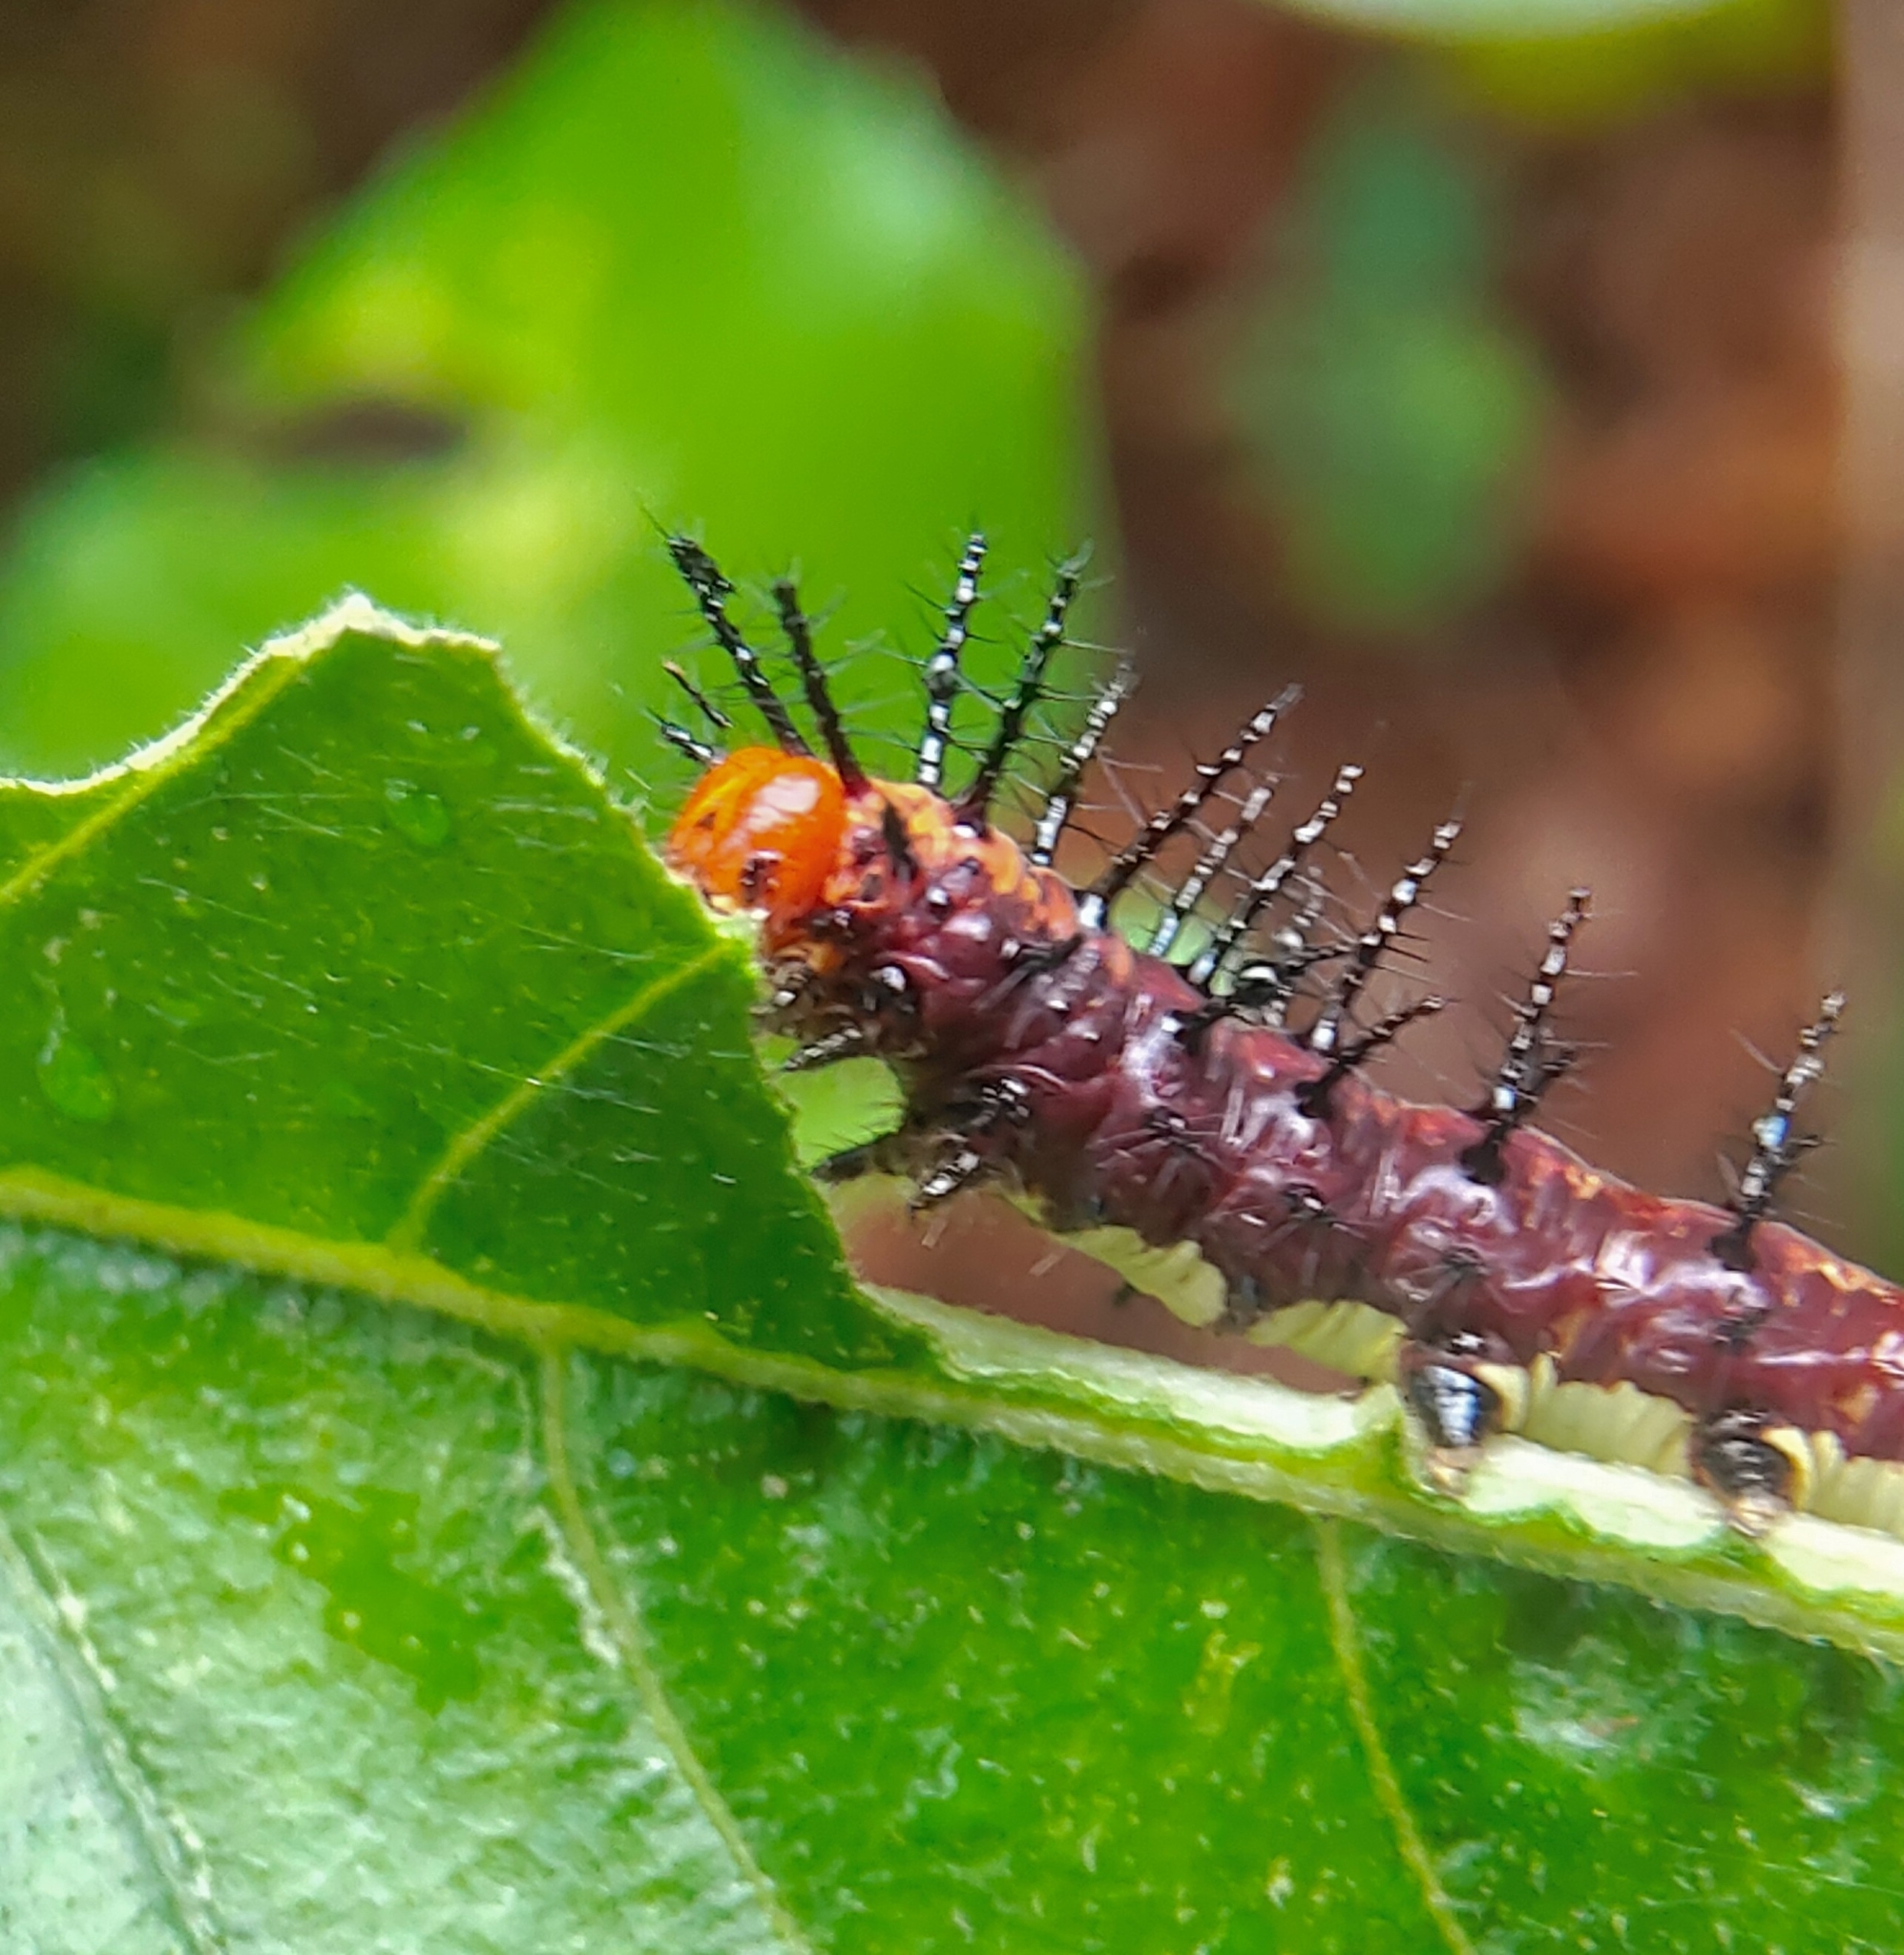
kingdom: Animalia
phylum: Arthropoda
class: Insecta
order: Lepidoptera
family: Nymphalidae
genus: Acraea
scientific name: Acraea terpsicore
